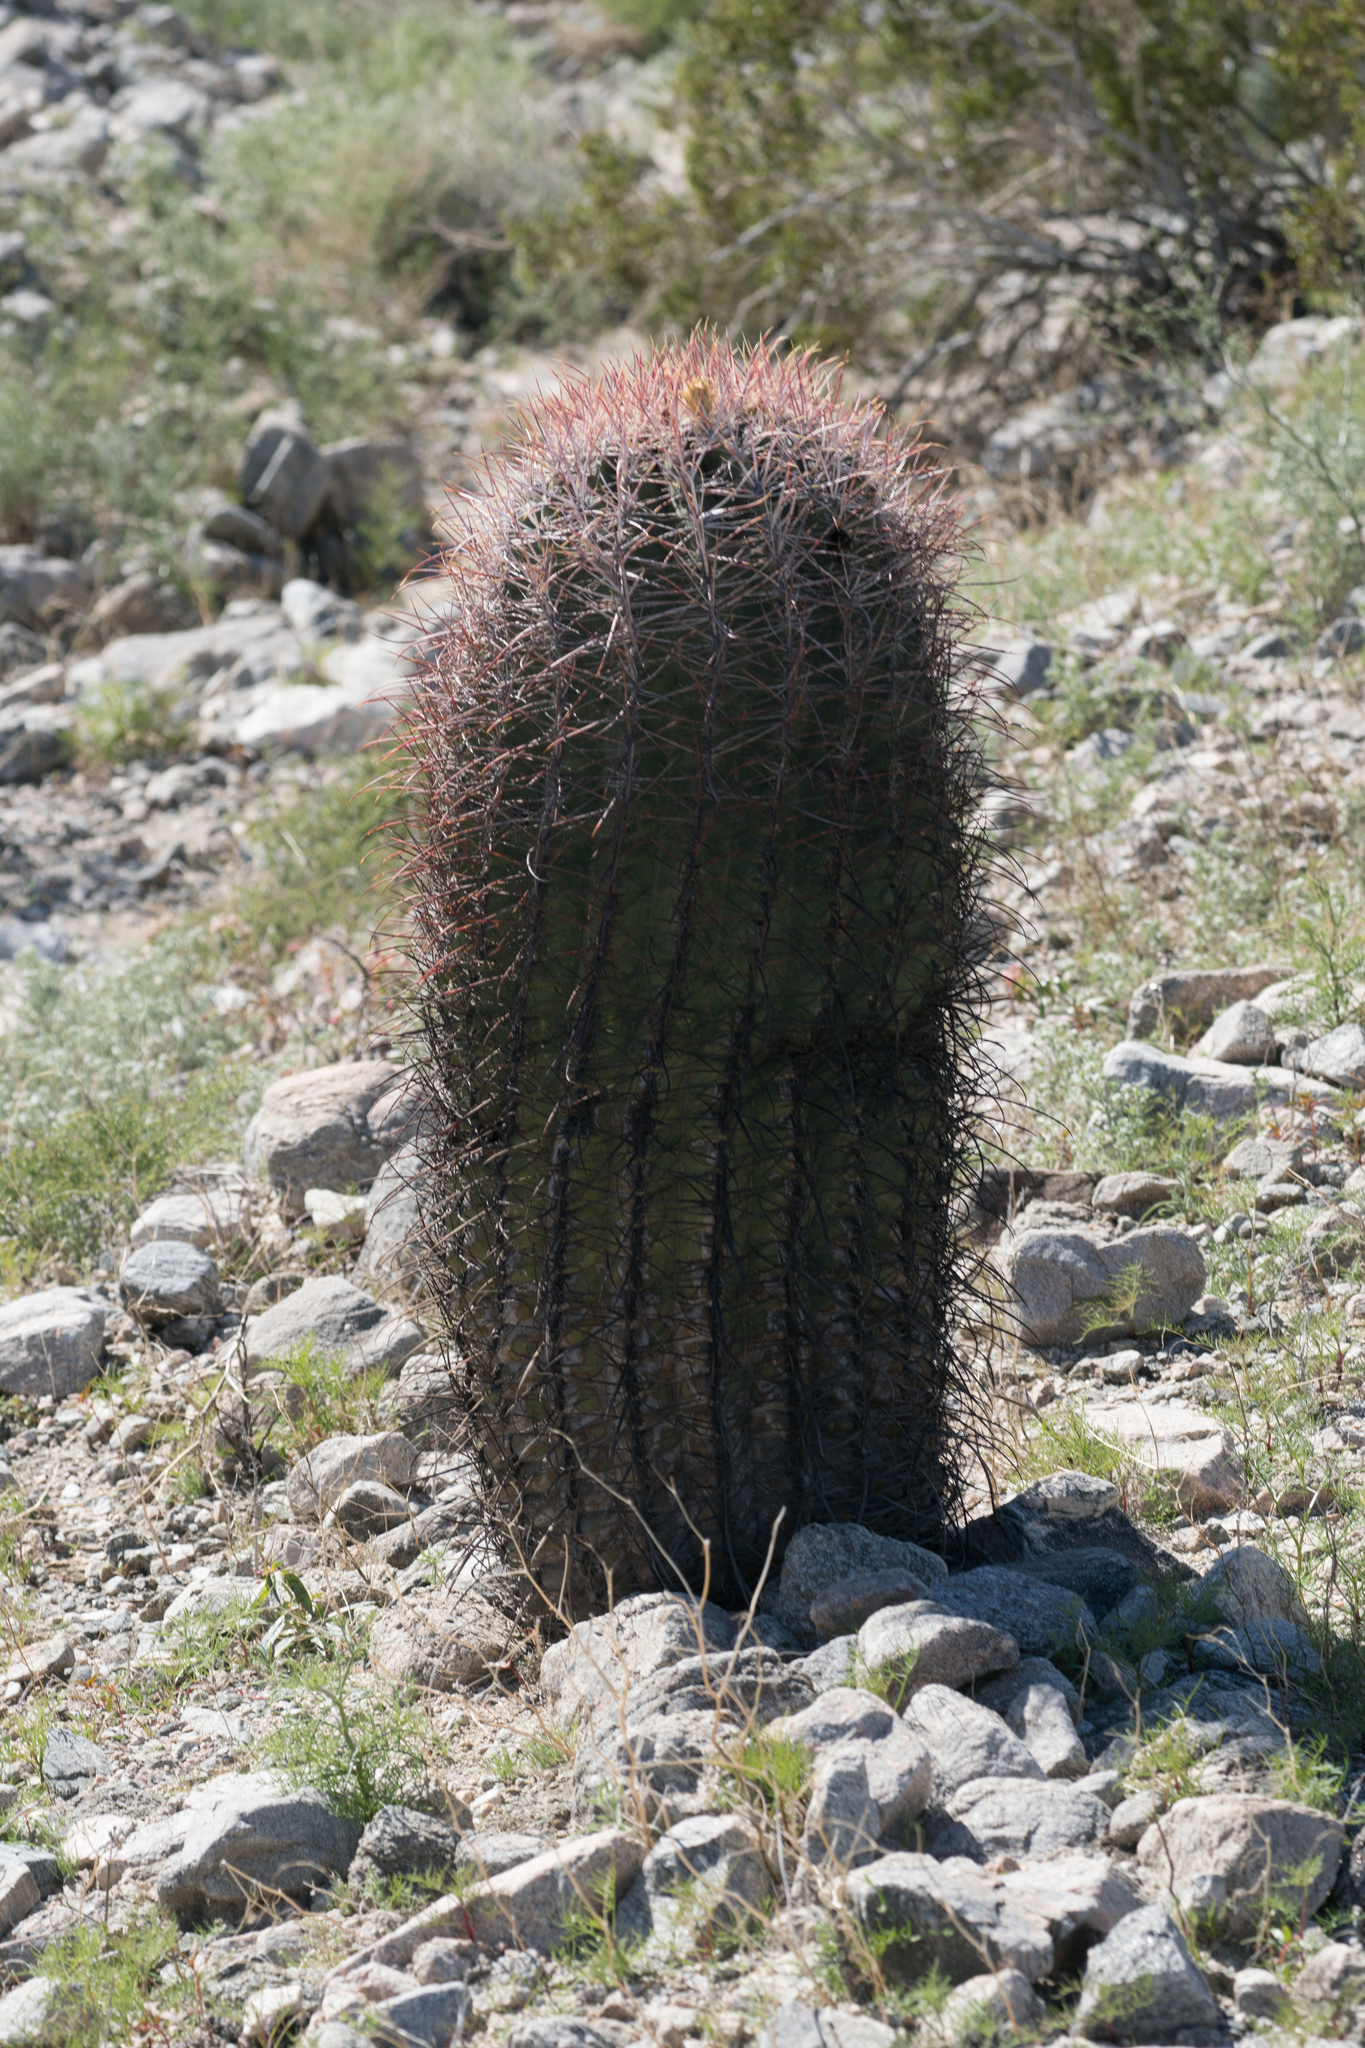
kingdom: Plantae
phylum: Tracheophyta
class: Magnoliopsida
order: Caryophyllales
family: Cactaceae
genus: Ferocactus
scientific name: Ferocactus cylindraceus
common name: California barrel cactus
